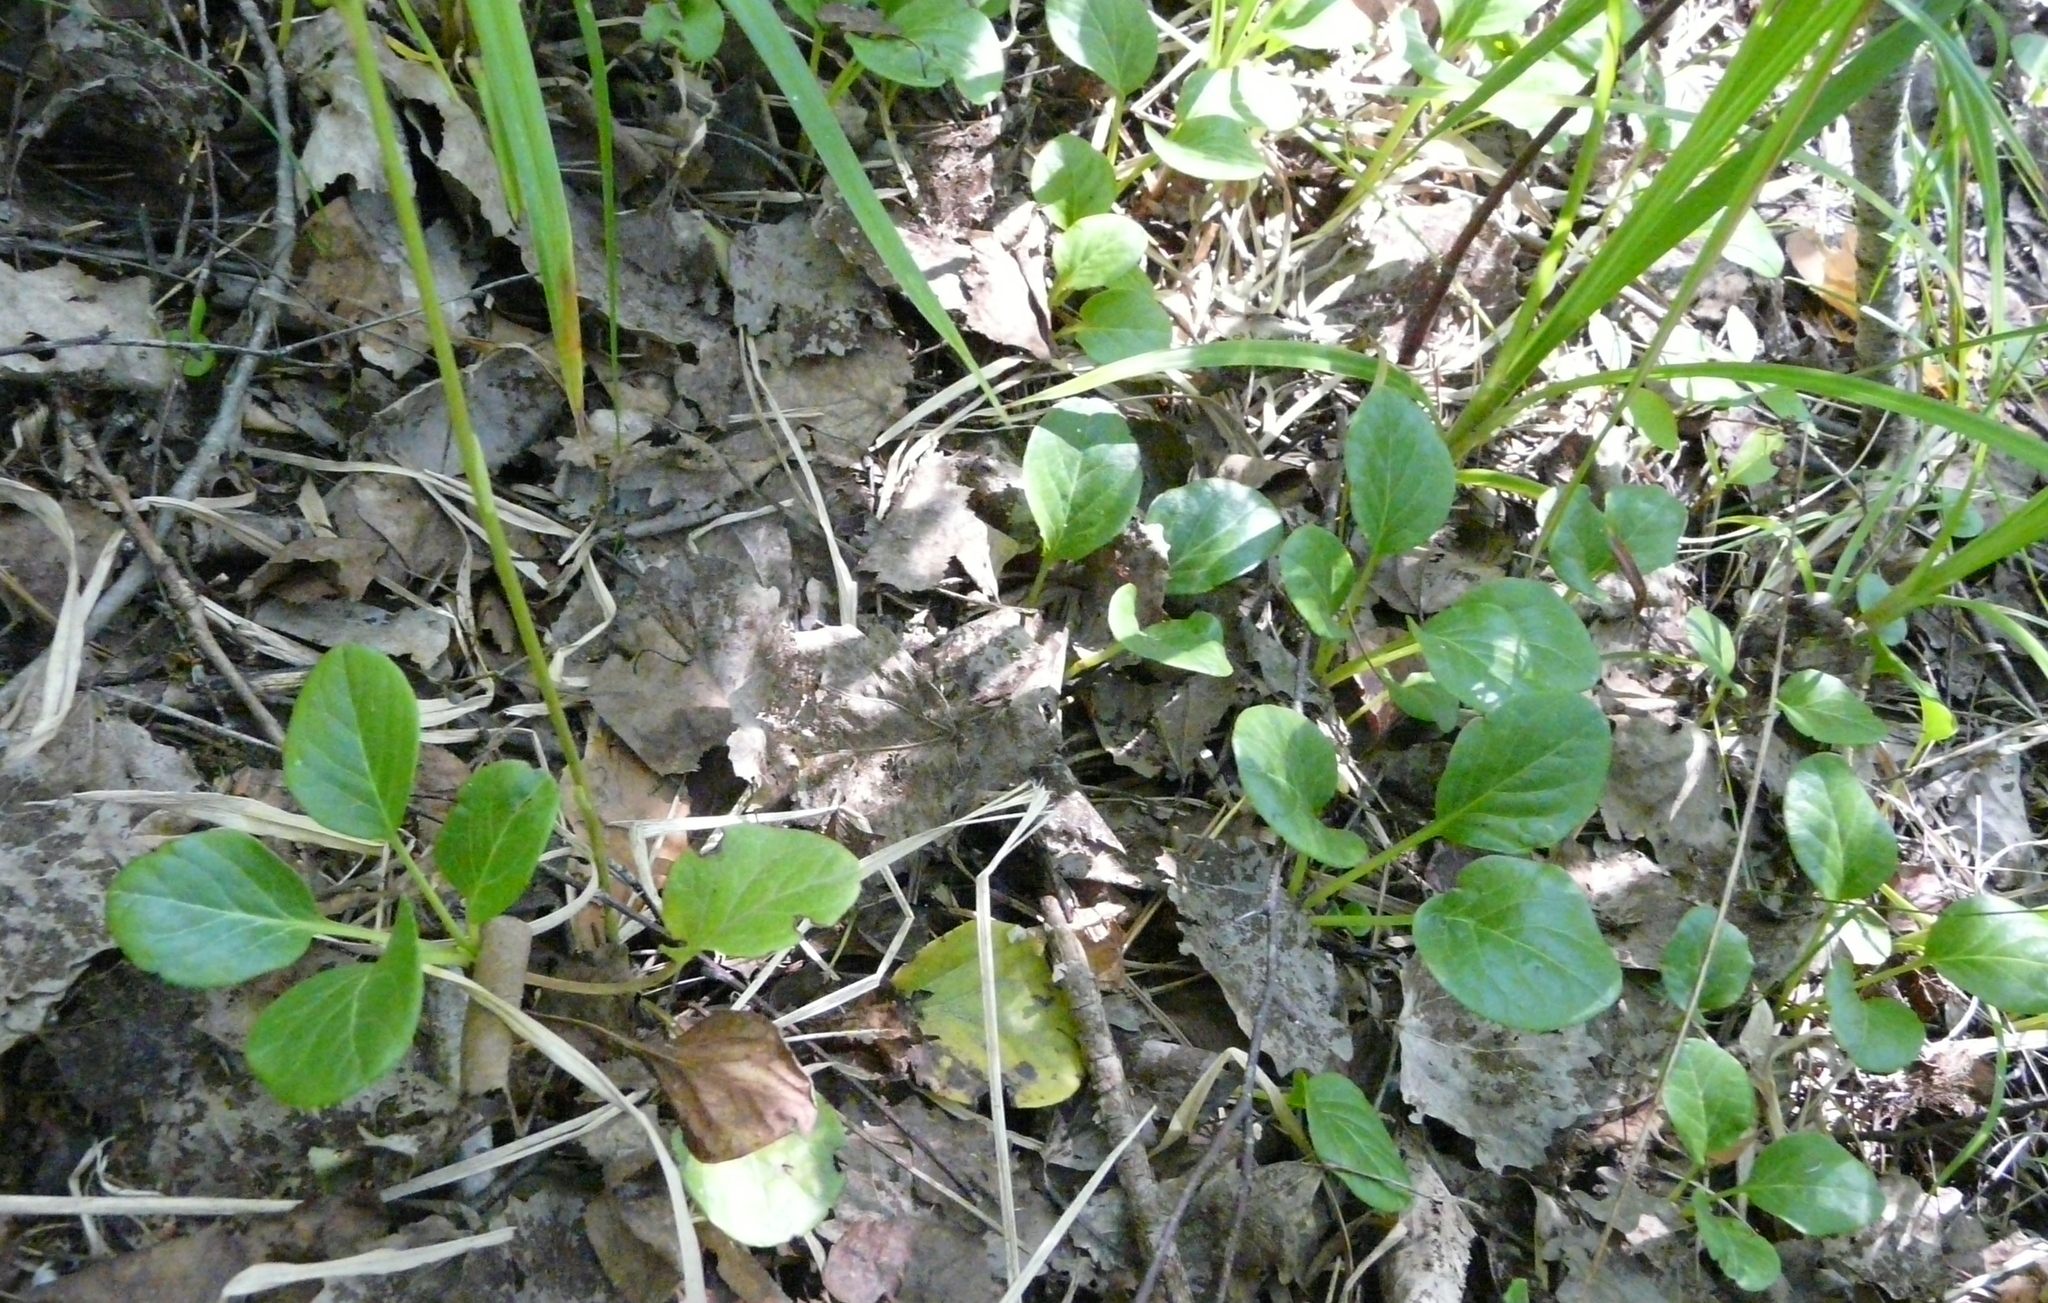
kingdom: Plantae
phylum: Tracheophyta
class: Magnoliopsida
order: Ericales
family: Ericaceae
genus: Pyrola
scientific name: Pyrola rotundifolia
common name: Round-leaved wintergreen
